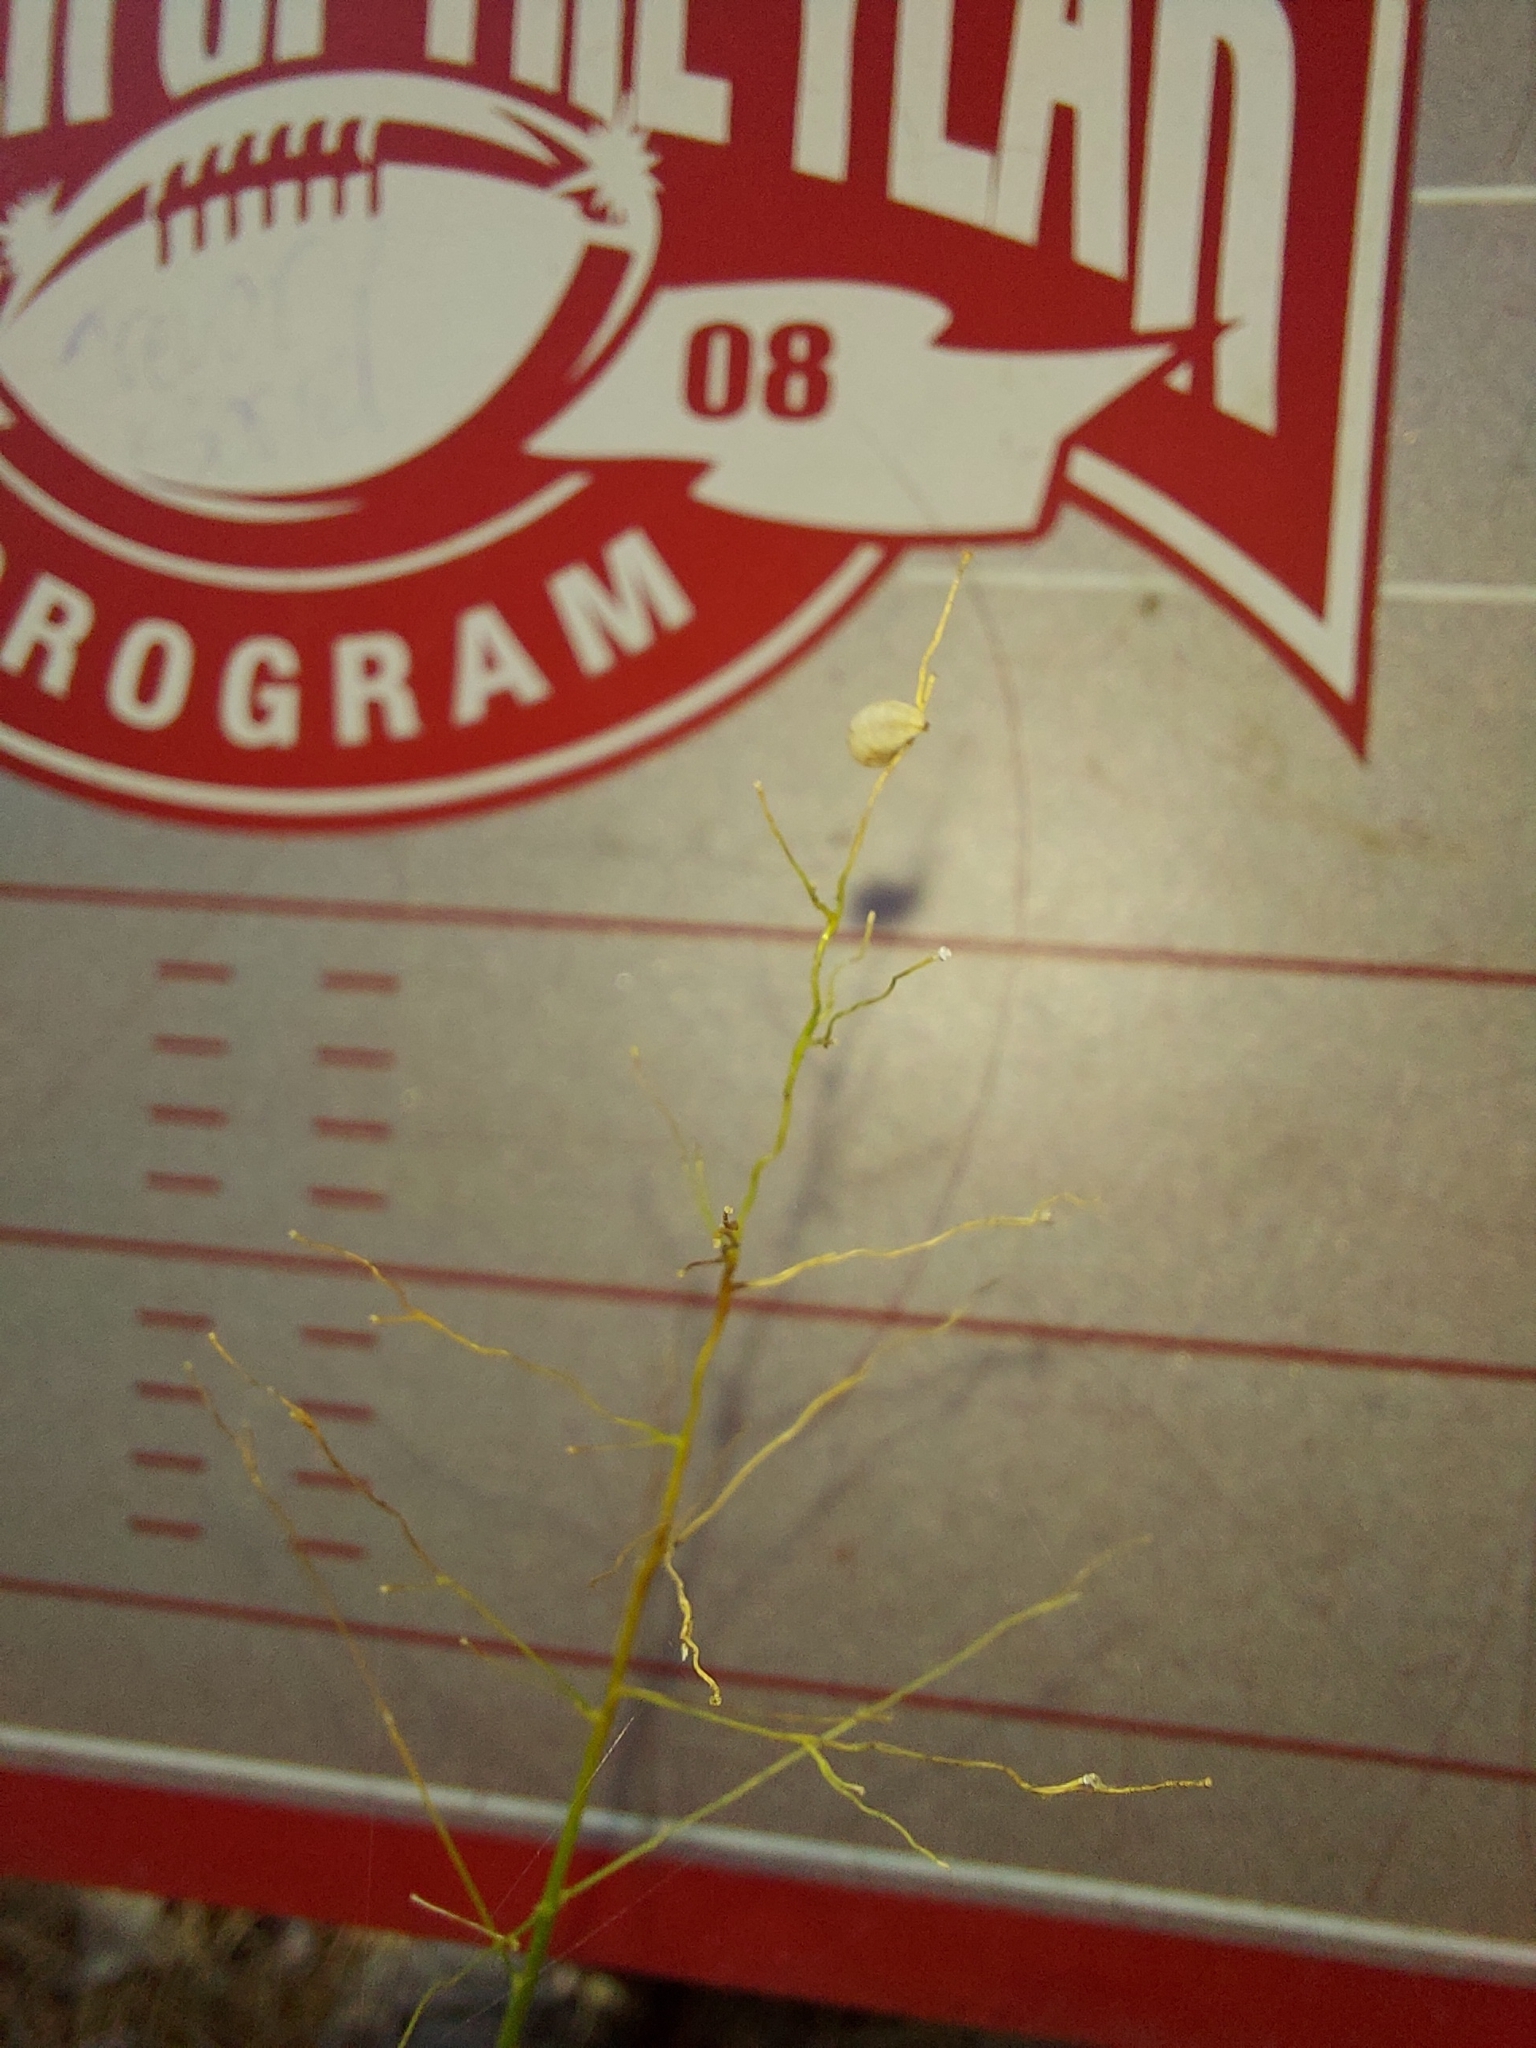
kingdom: Plantae
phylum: Tracheophyta
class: Liliopsida
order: Poales
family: Poaceae
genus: Dichanthelium
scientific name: Dichanthelium ovale
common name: Stiff-leaved panicgrass
